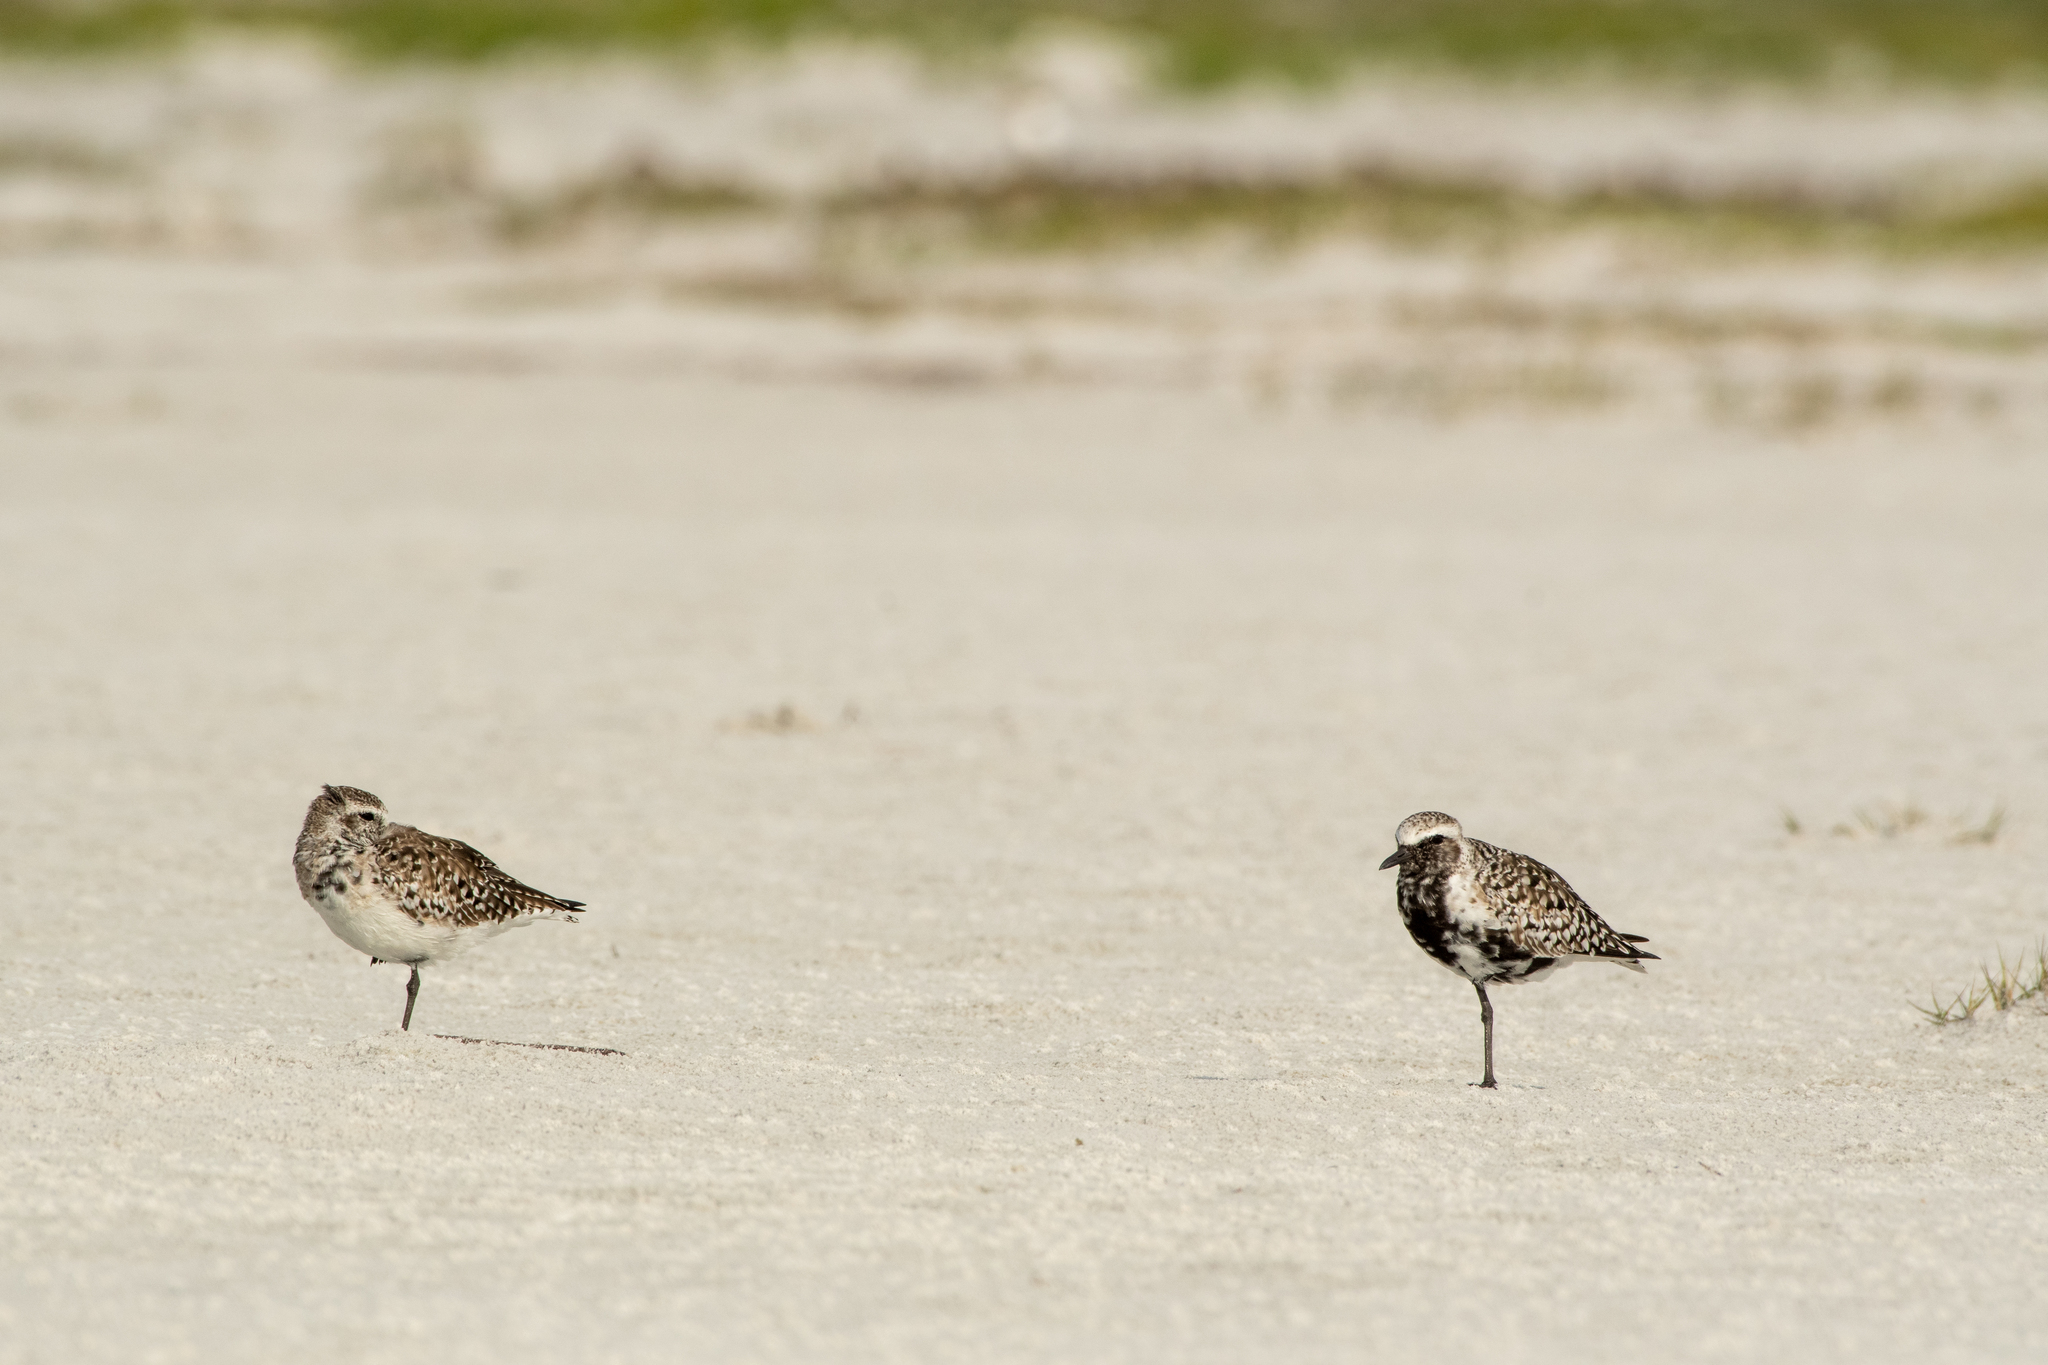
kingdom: Animalia
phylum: Chordata
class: Aves
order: Charadriiformes
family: Charadriidae
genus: Pluvialis
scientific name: Pluvialis squatarola
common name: Grey plover
